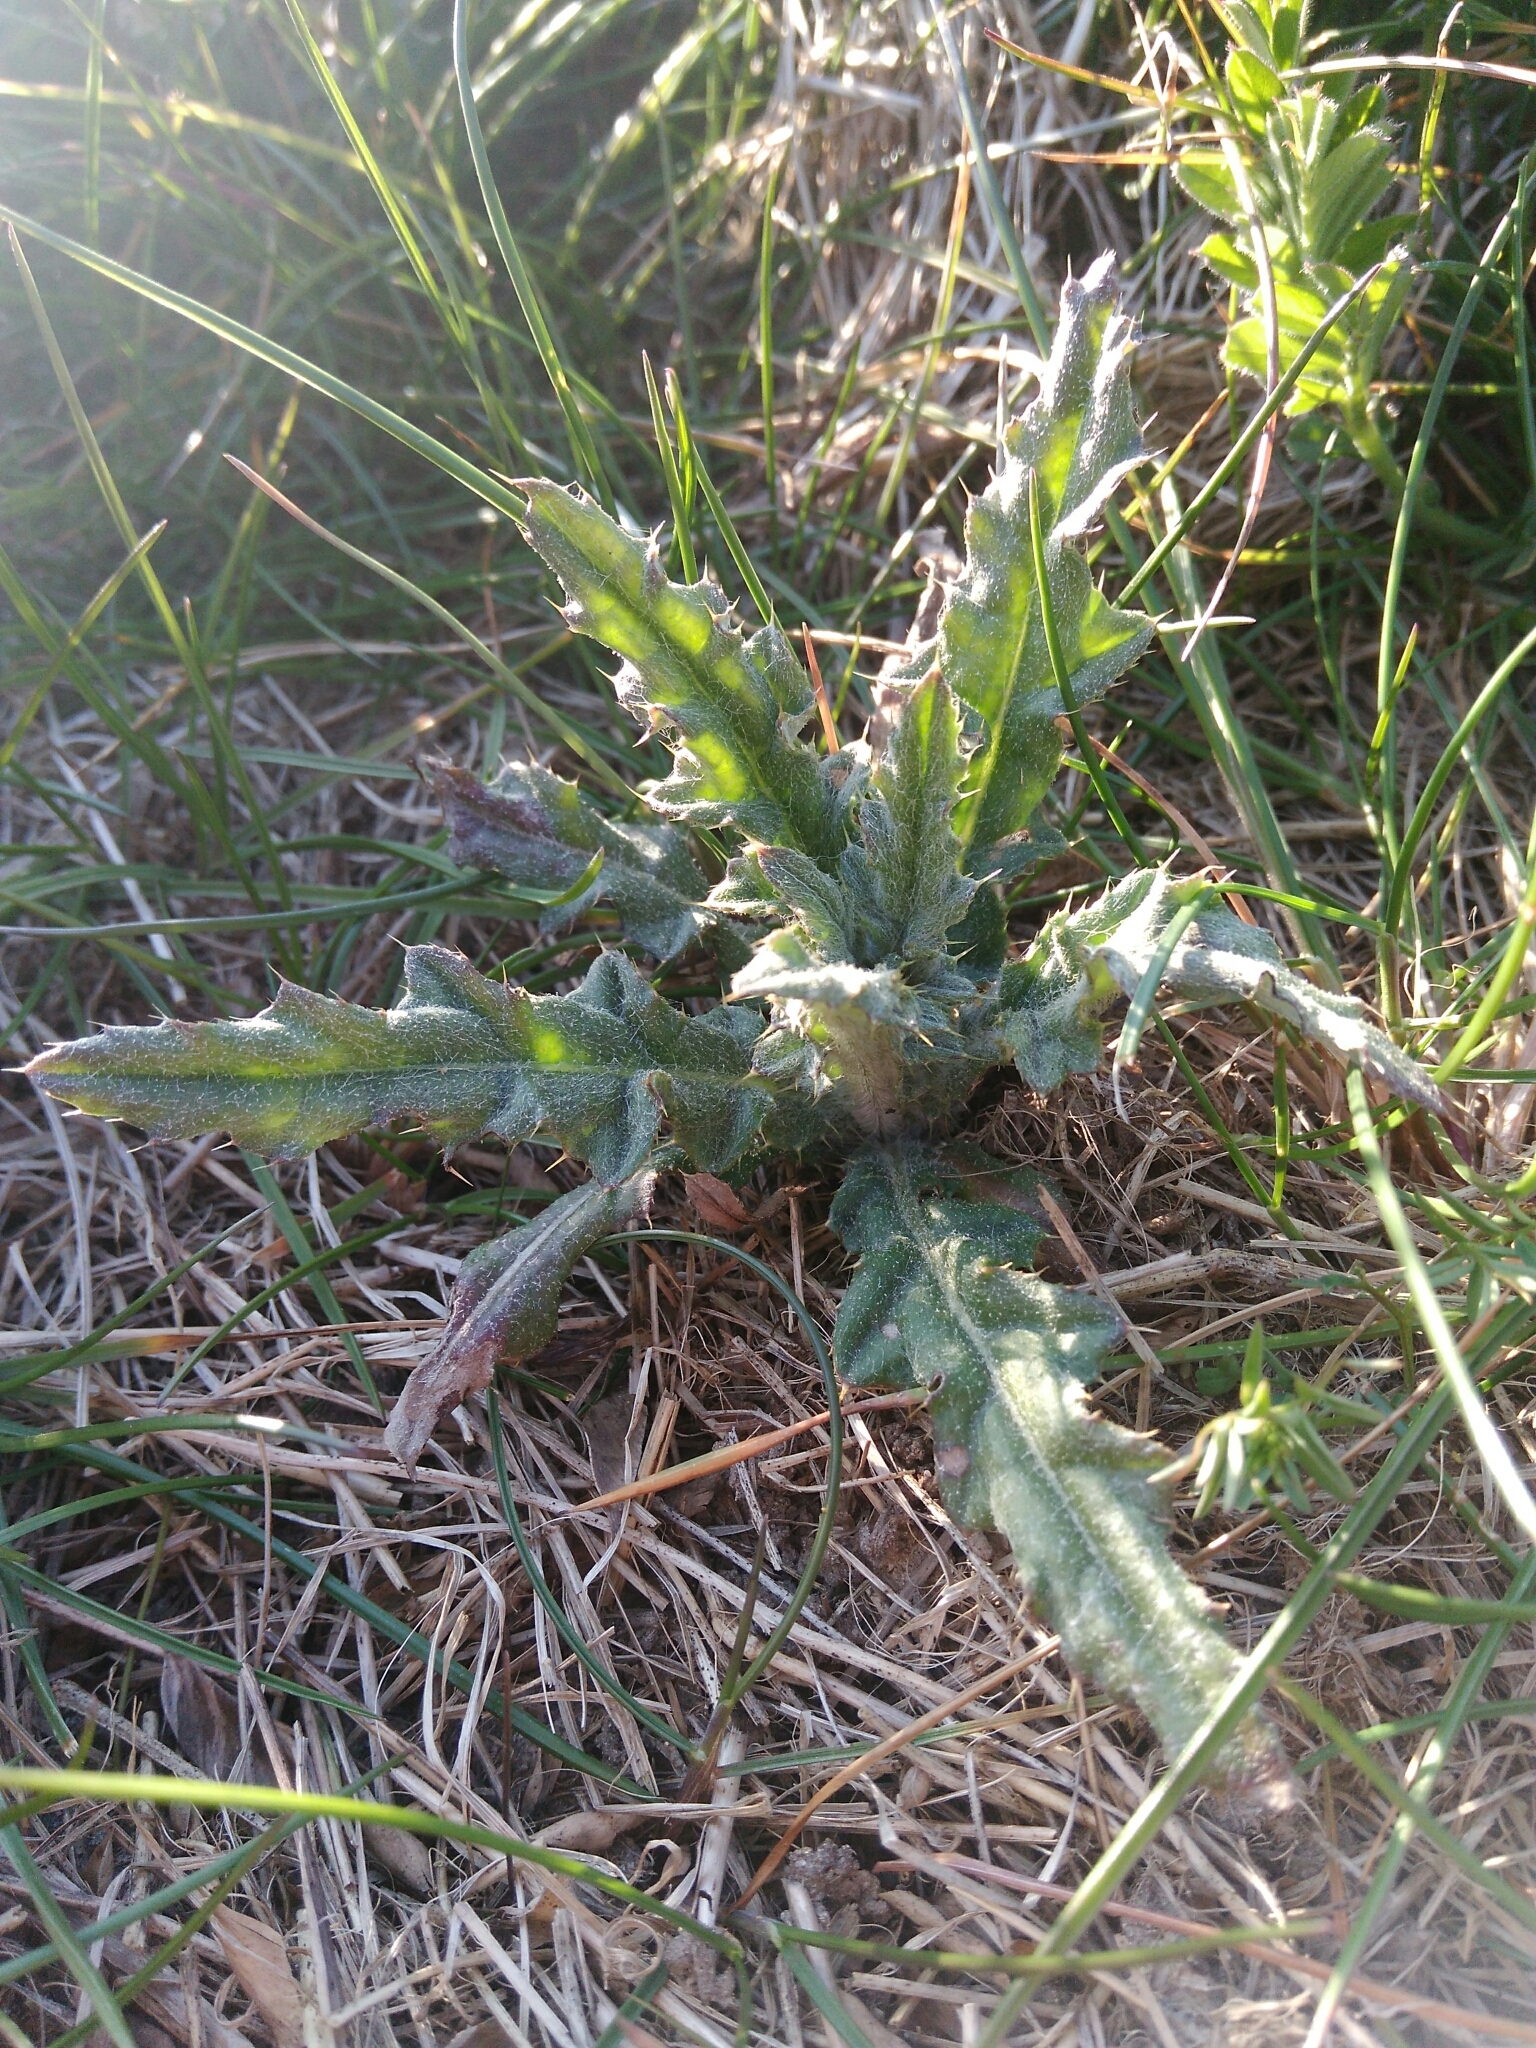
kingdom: Plantae
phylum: Tracheophyta
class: Magnoliopsida
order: Asterales
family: Asteraceae
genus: Cirsium
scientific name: Cirsium arvense
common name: Creeping thistle
